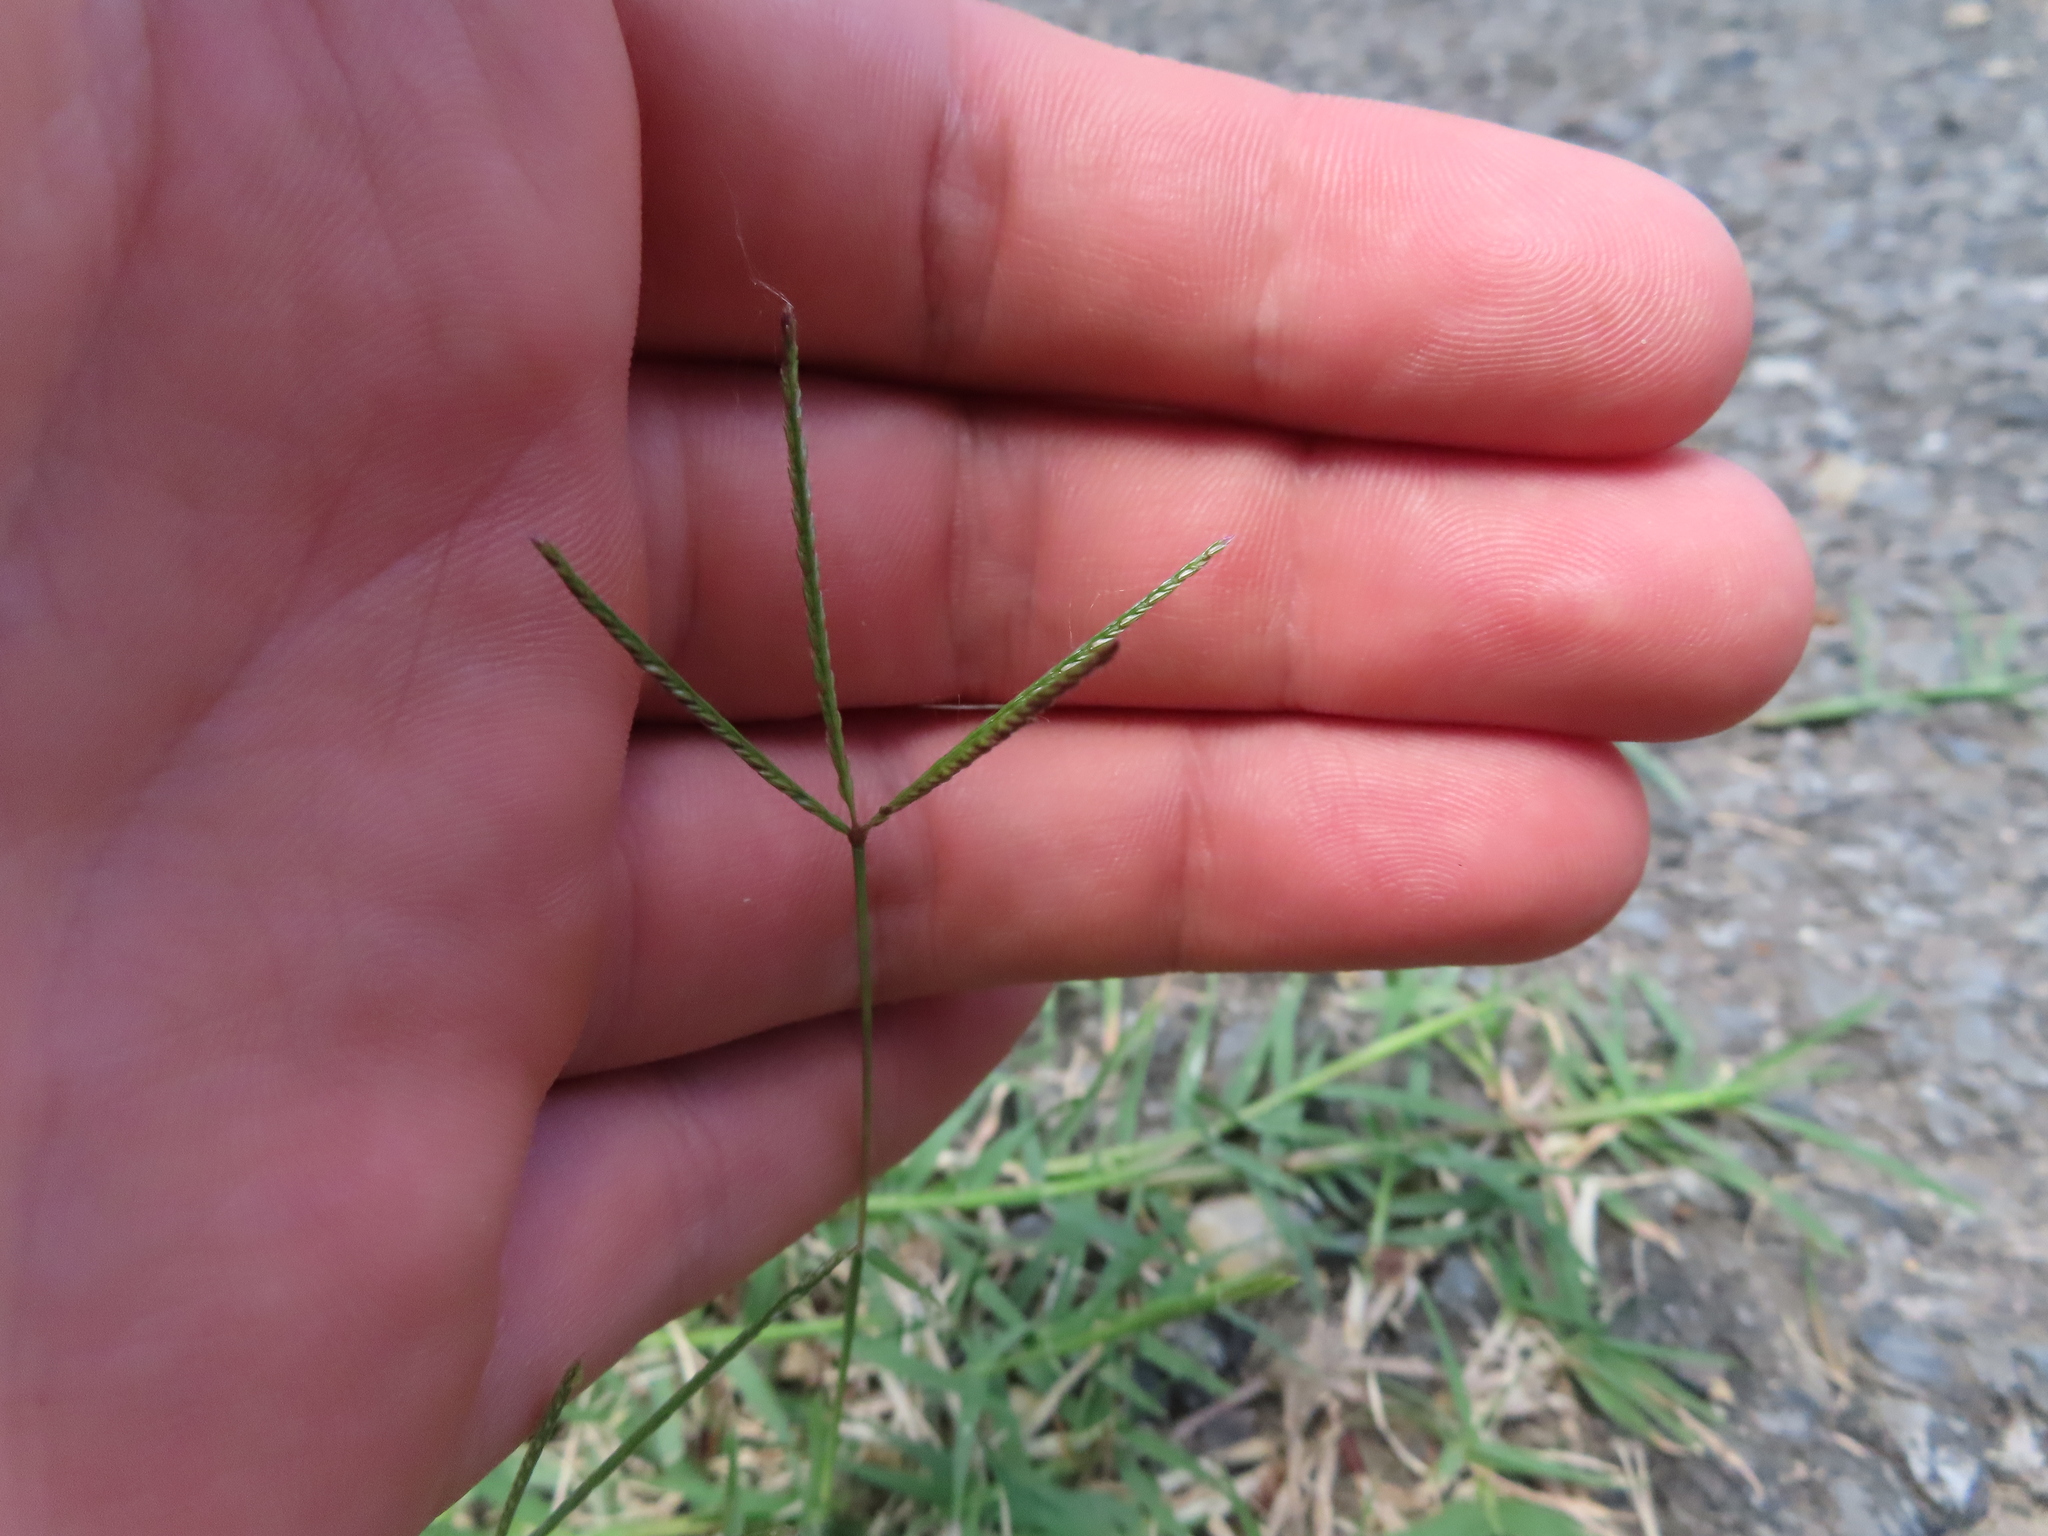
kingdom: Plantae
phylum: Tracheophyta
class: Liliopsida
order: Poales
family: Poaceae
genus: Cynodon
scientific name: Cynodon dactylon
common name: Bermuda grass
